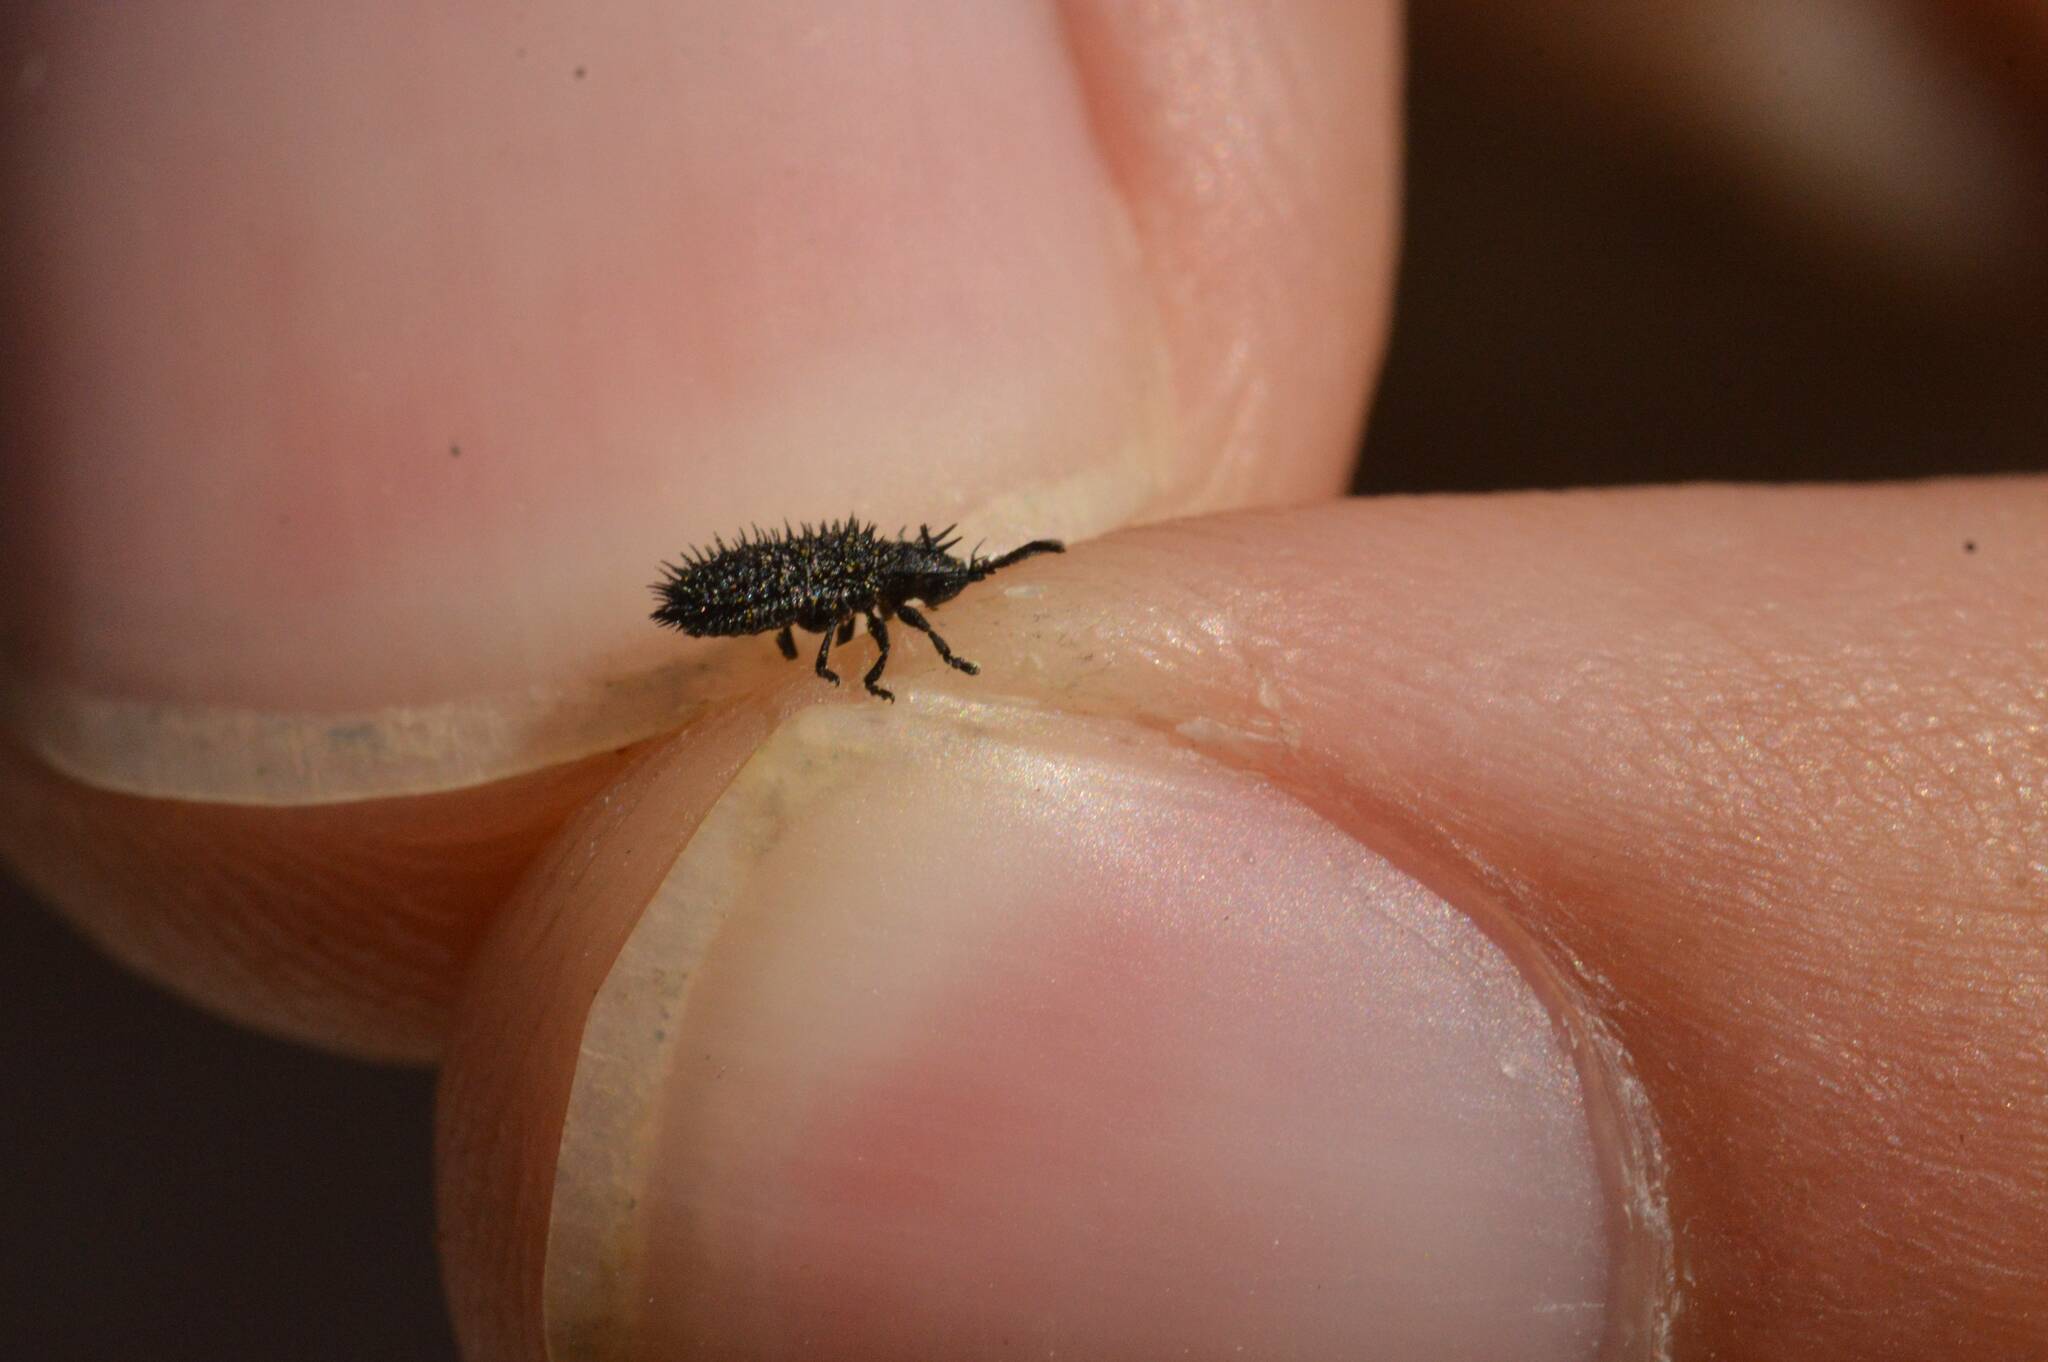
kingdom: Animalia
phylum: Arthropoda
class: Insecta
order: Coleoptera
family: Chrysomelidae
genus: Hispa
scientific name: Hispa atra
